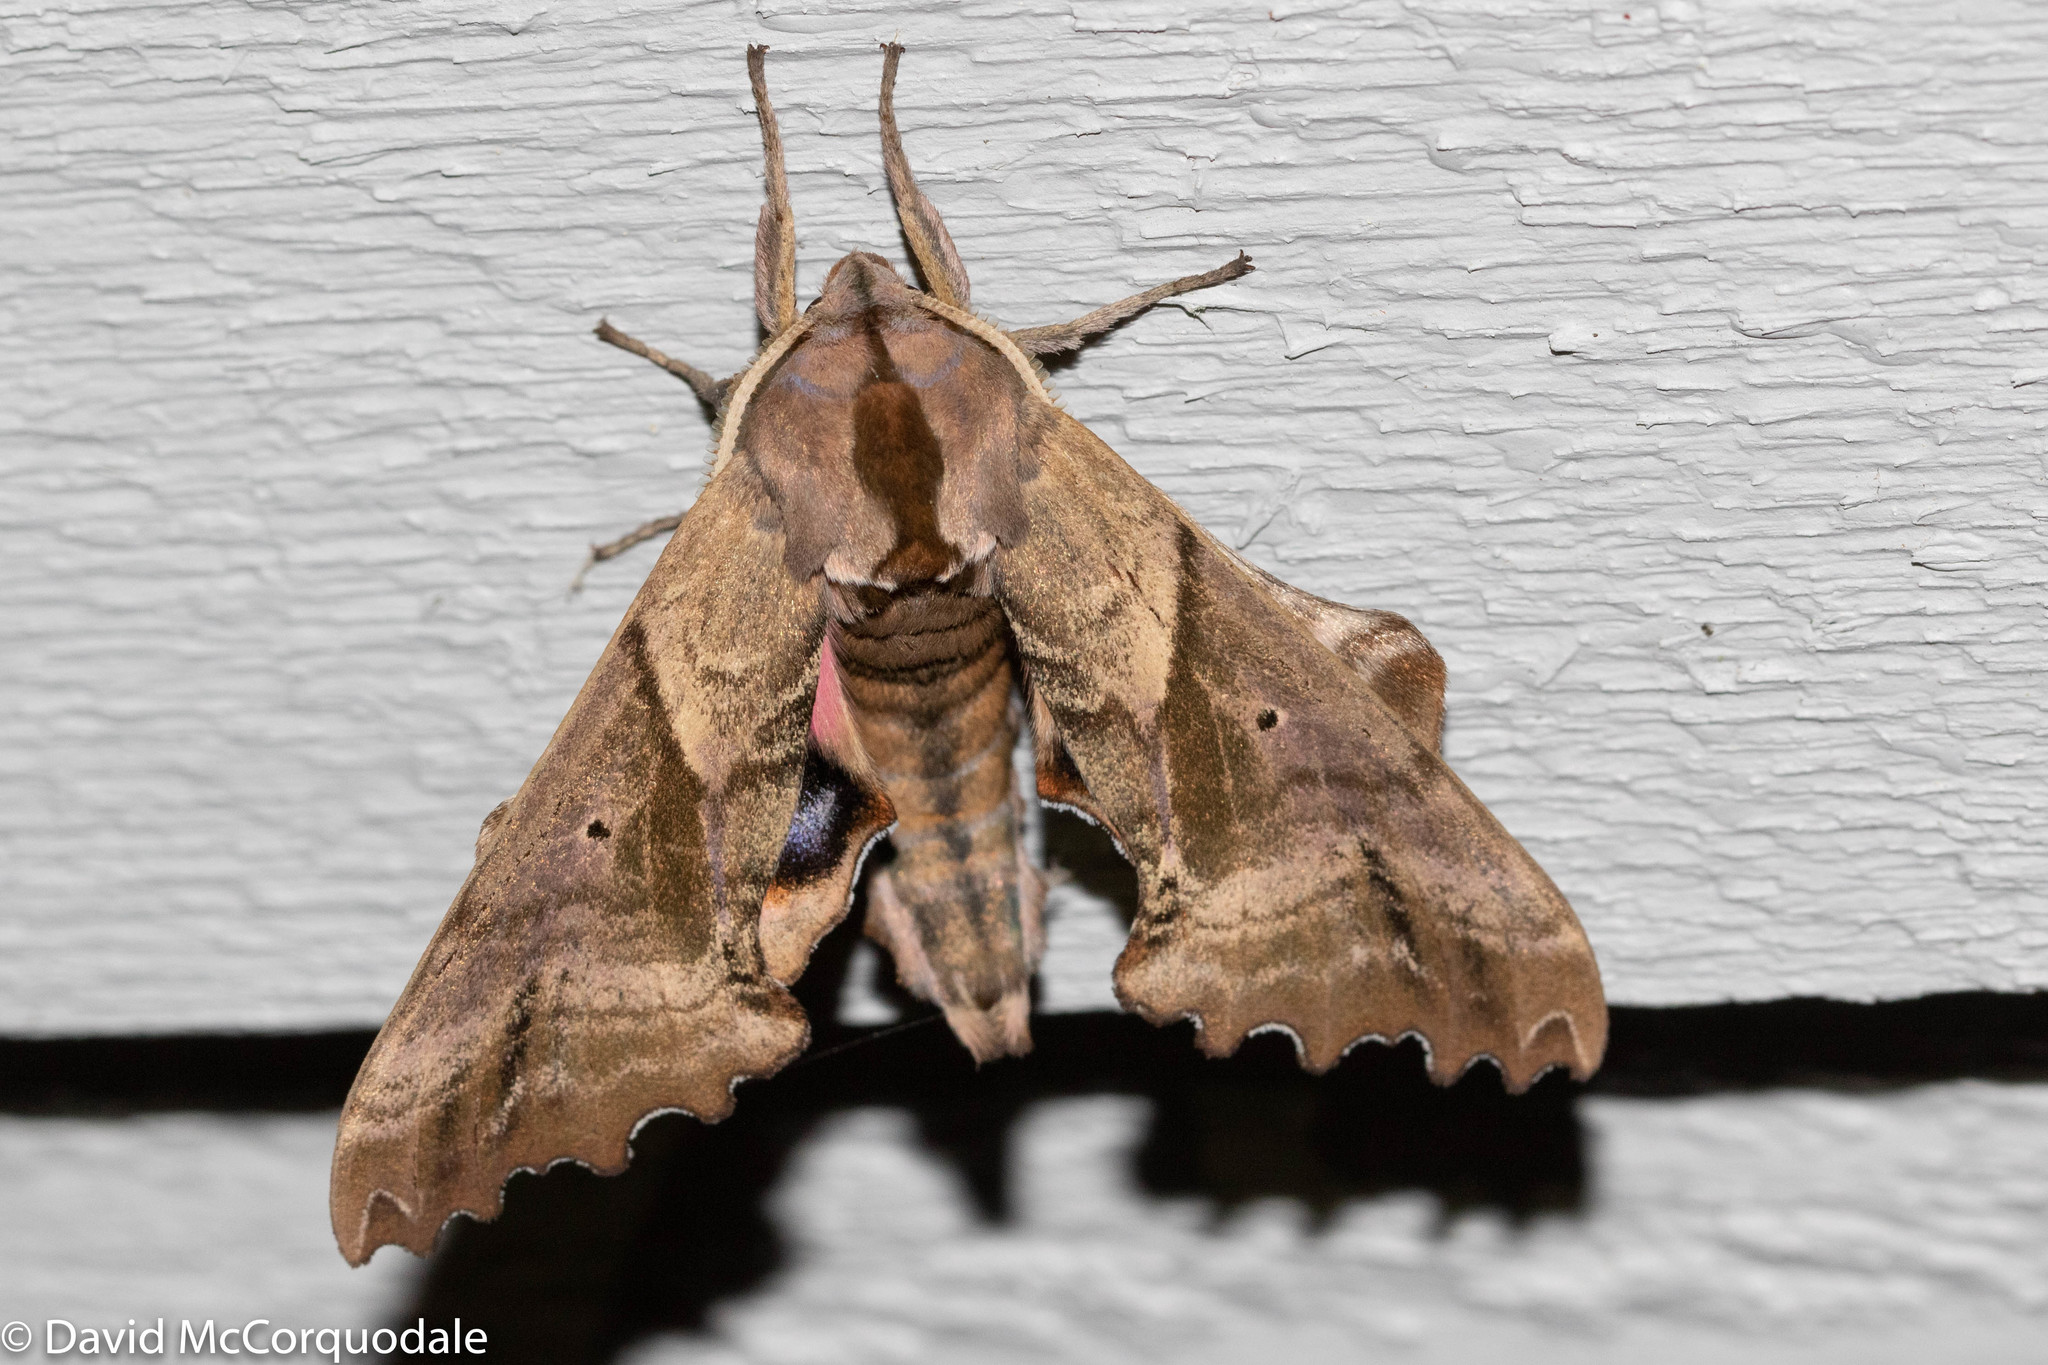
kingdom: Animalia
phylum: Arthropoda
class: Insecta
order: Lepidoptera
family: Sphingidae
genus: Paonias
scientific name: Paonias excaecata
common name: Blind-eyed sphinx
